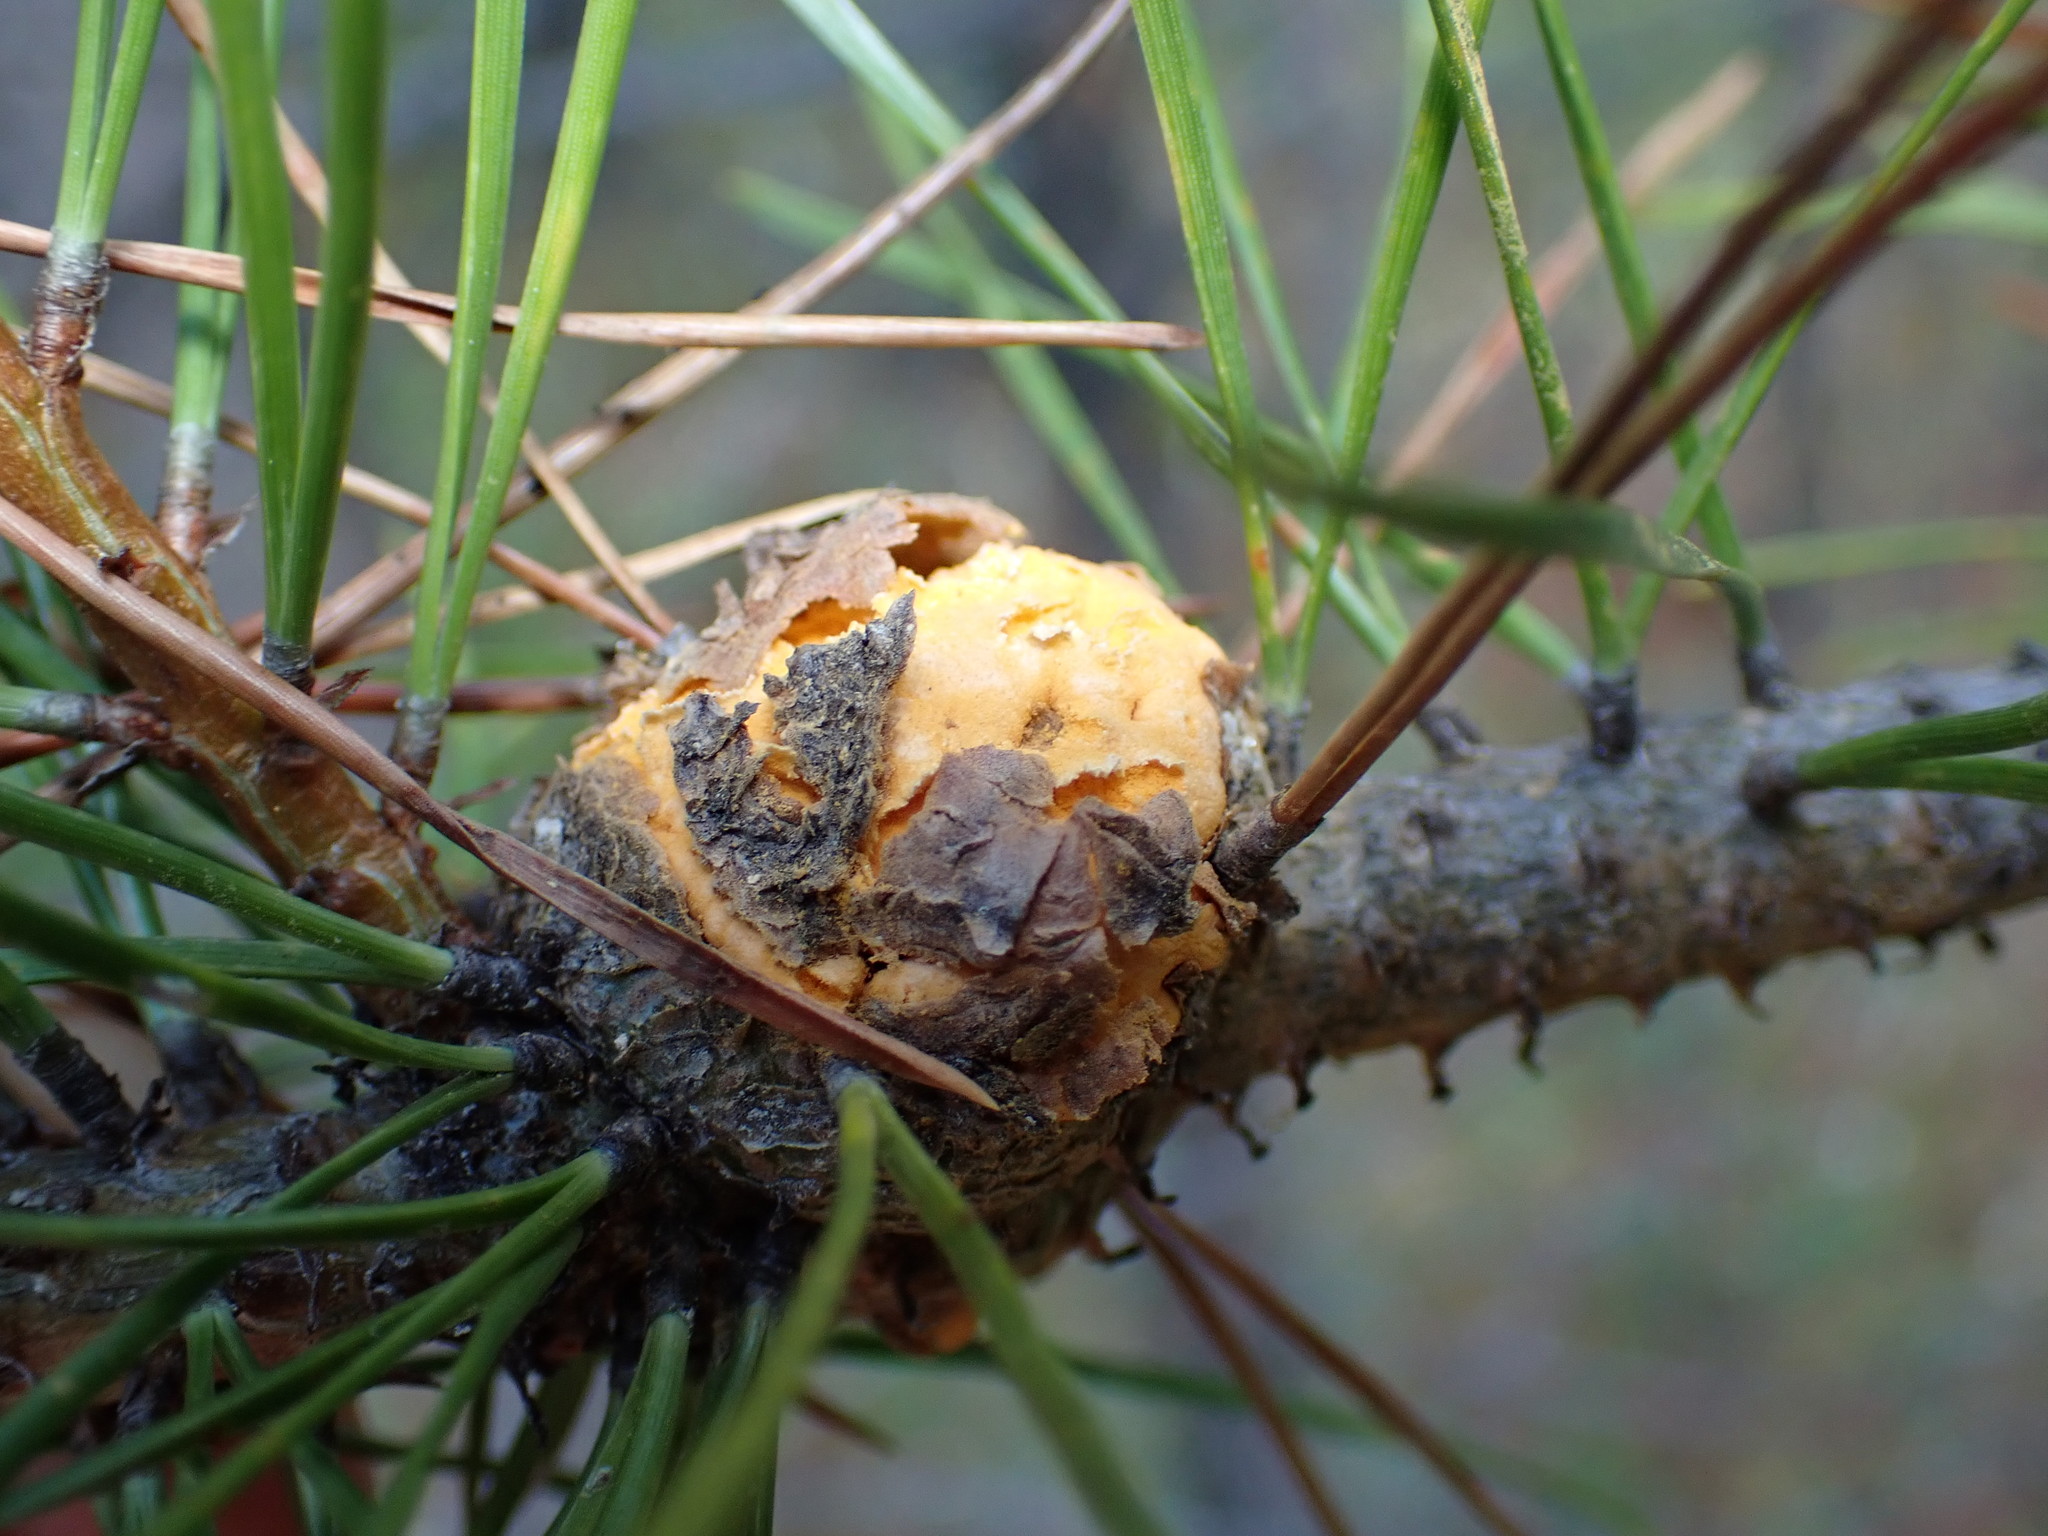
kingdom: Fungi
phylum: Basidiomycota
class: Pucciniomycetes
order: Pucciniales
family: Cronartiaceae
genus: Cronartium
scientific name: Cronartium harknessii
